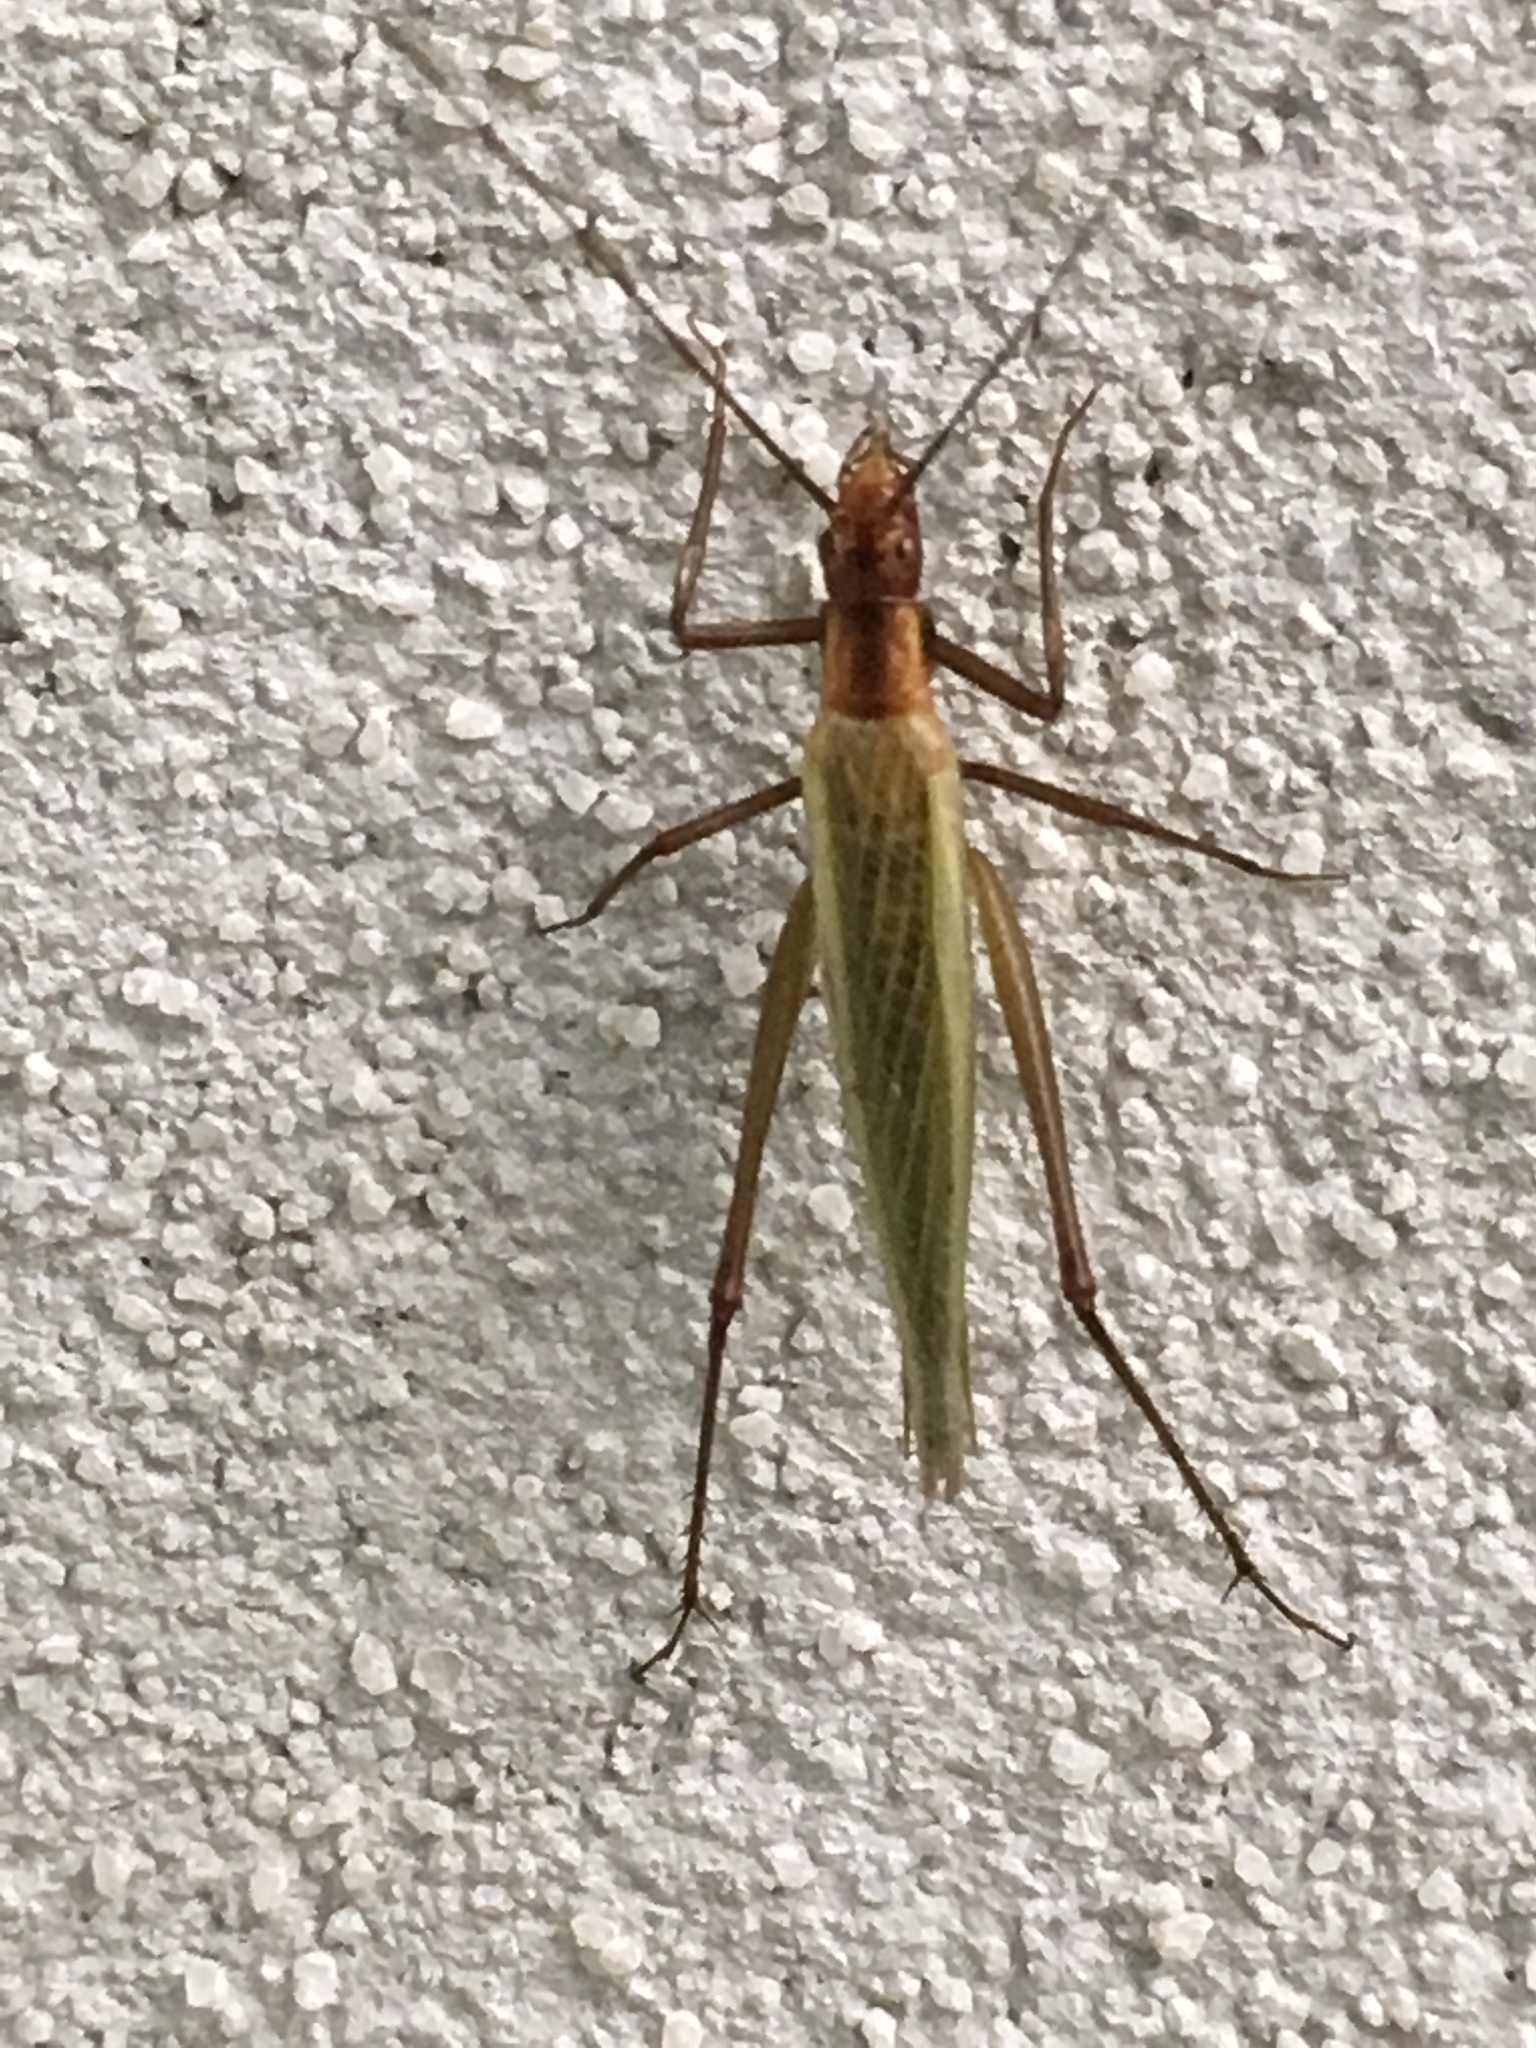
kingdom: Animalia
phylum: Arthropoda
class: Insecta
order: Orthoptera
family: Gryllidae
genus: Oecanthus
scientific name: Oecanthus pini
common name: Pine tree cricket
